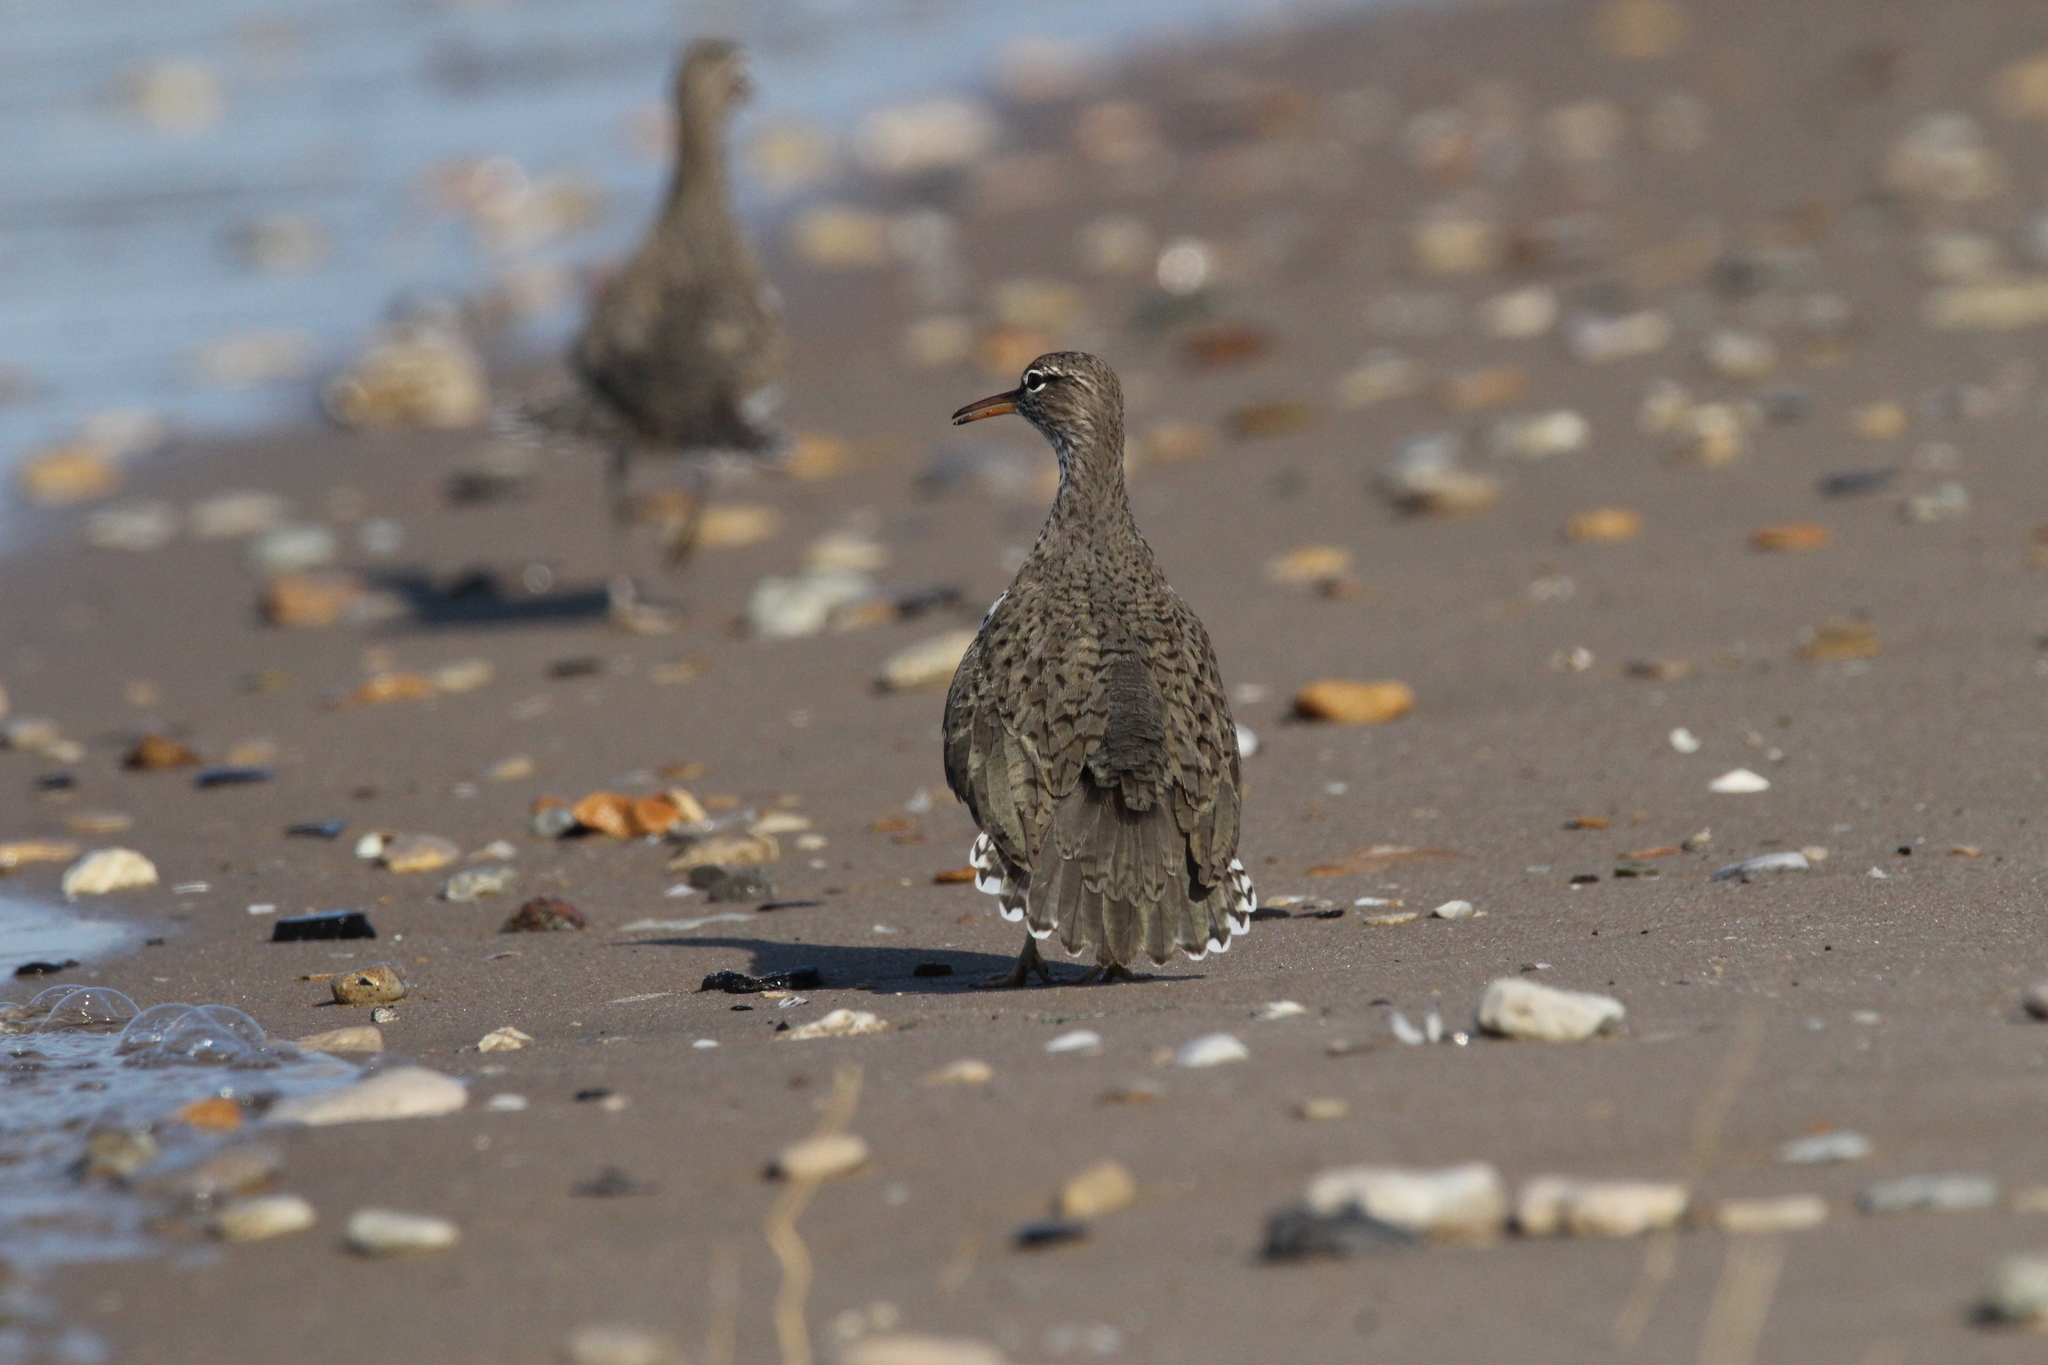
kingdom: Animalia
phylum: Chordata
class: Aves
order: Charadriiformes
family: Scolopacidae
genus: Actitis
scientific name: Actitis macularius
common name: Spotted sandpiper
